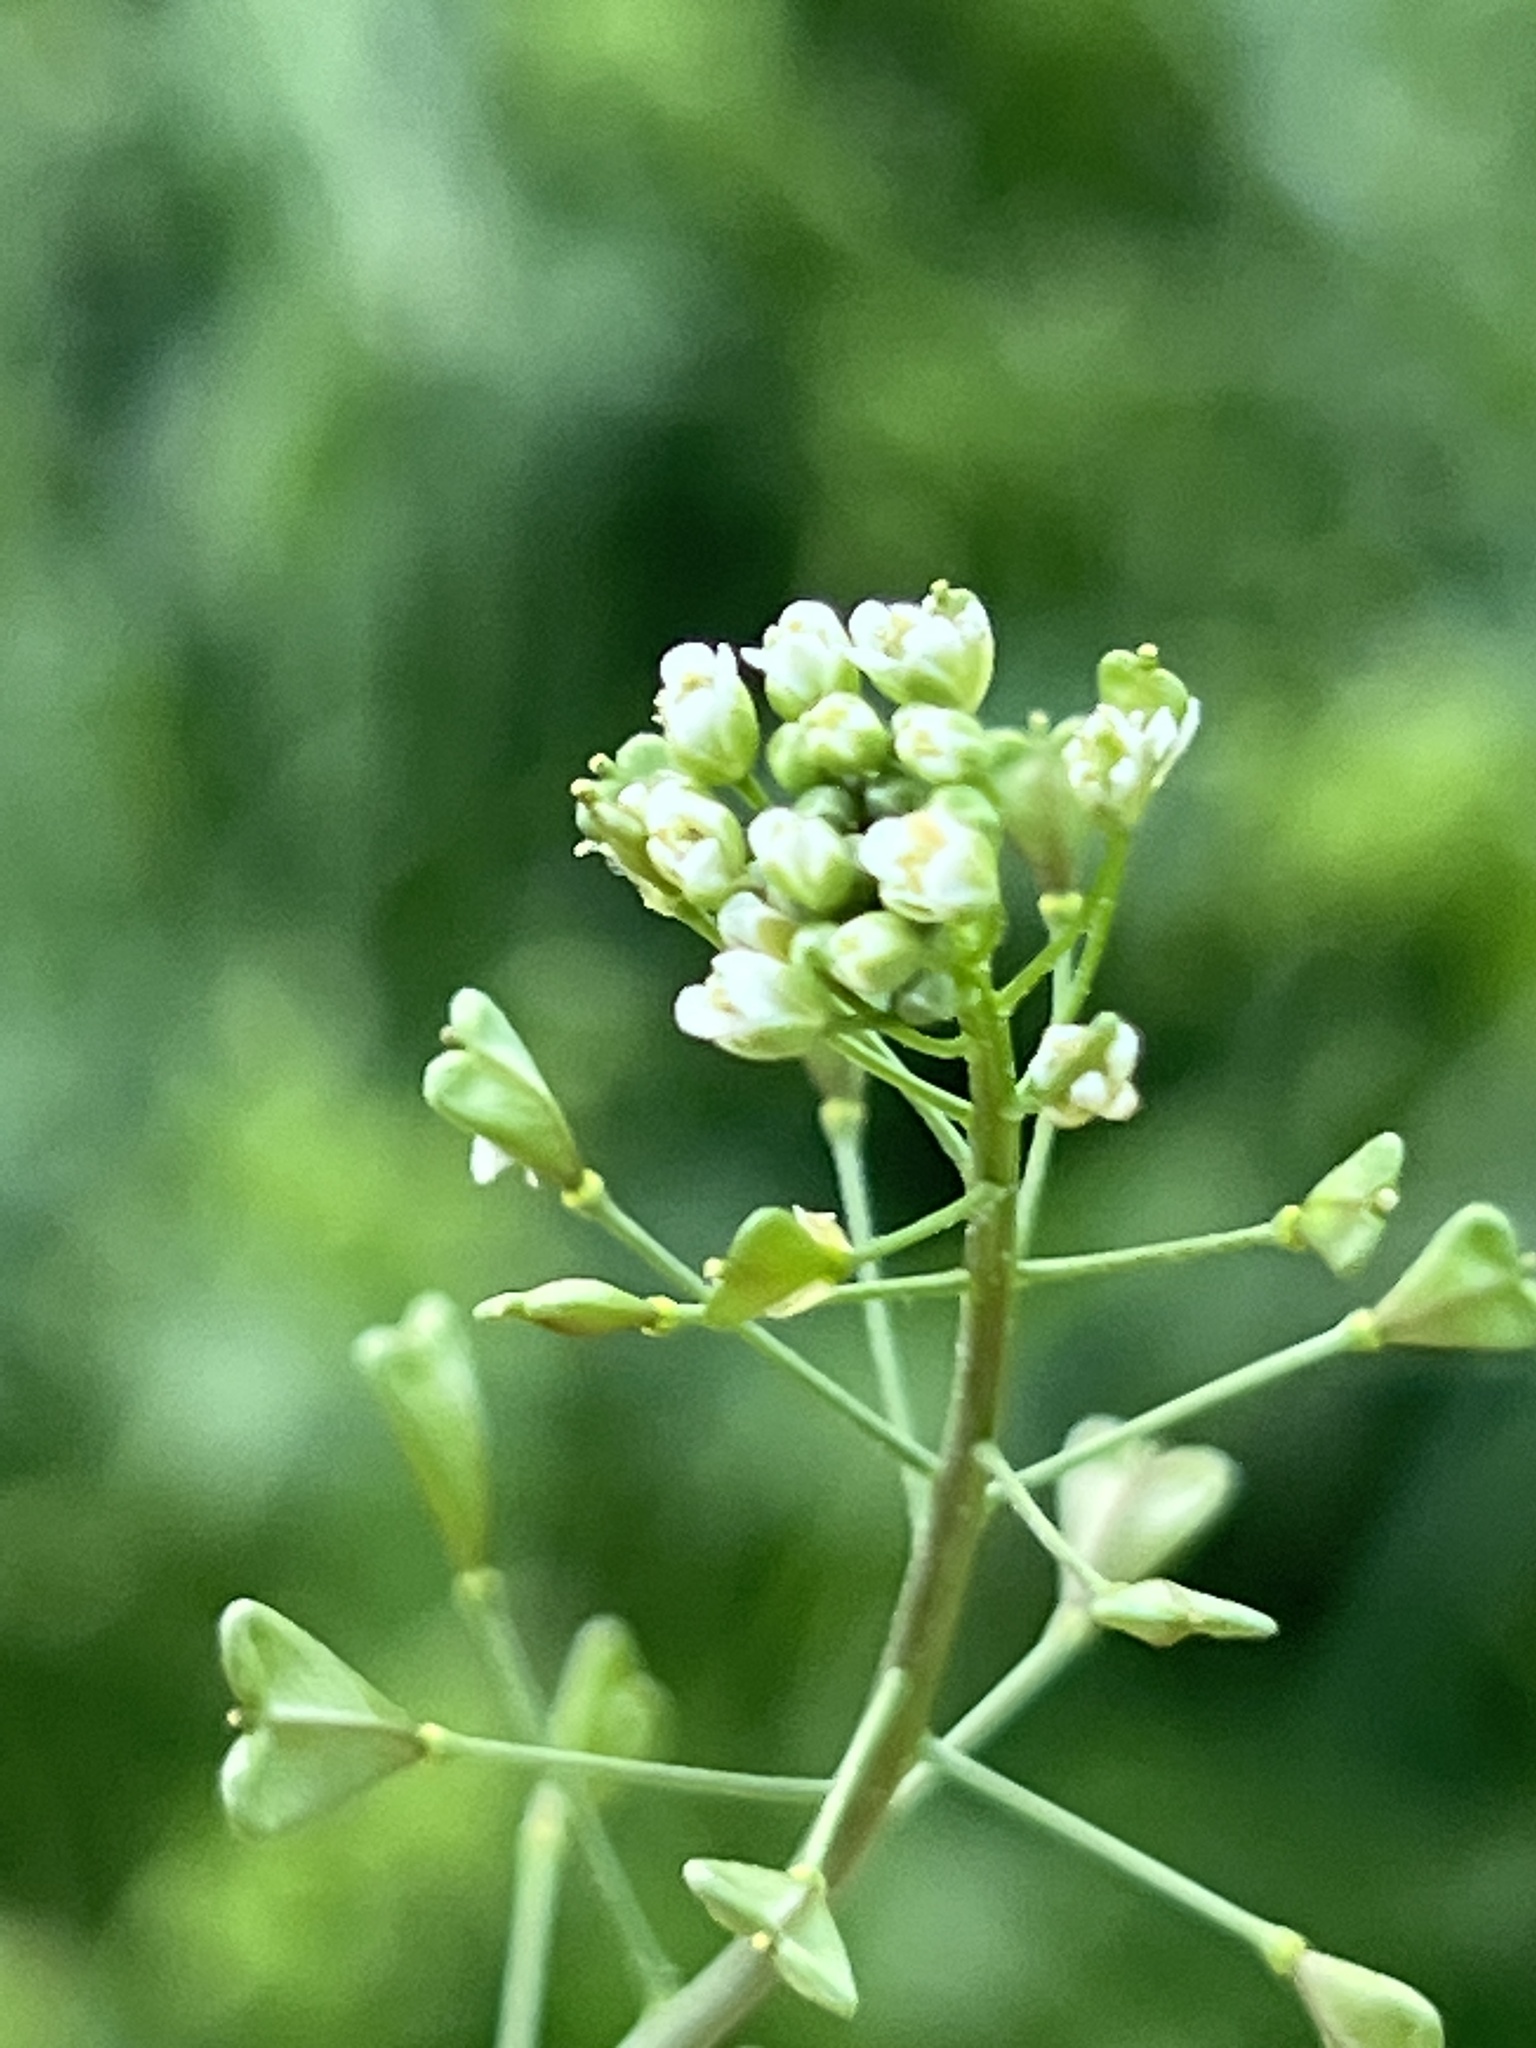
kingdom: Plantae
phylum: Tracheophyta
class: Magnoliopsida
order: Brassicales
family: Brassicaceae
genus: Capsella
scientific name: Capsella bursa-pastoris
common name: Shepherd's purse
